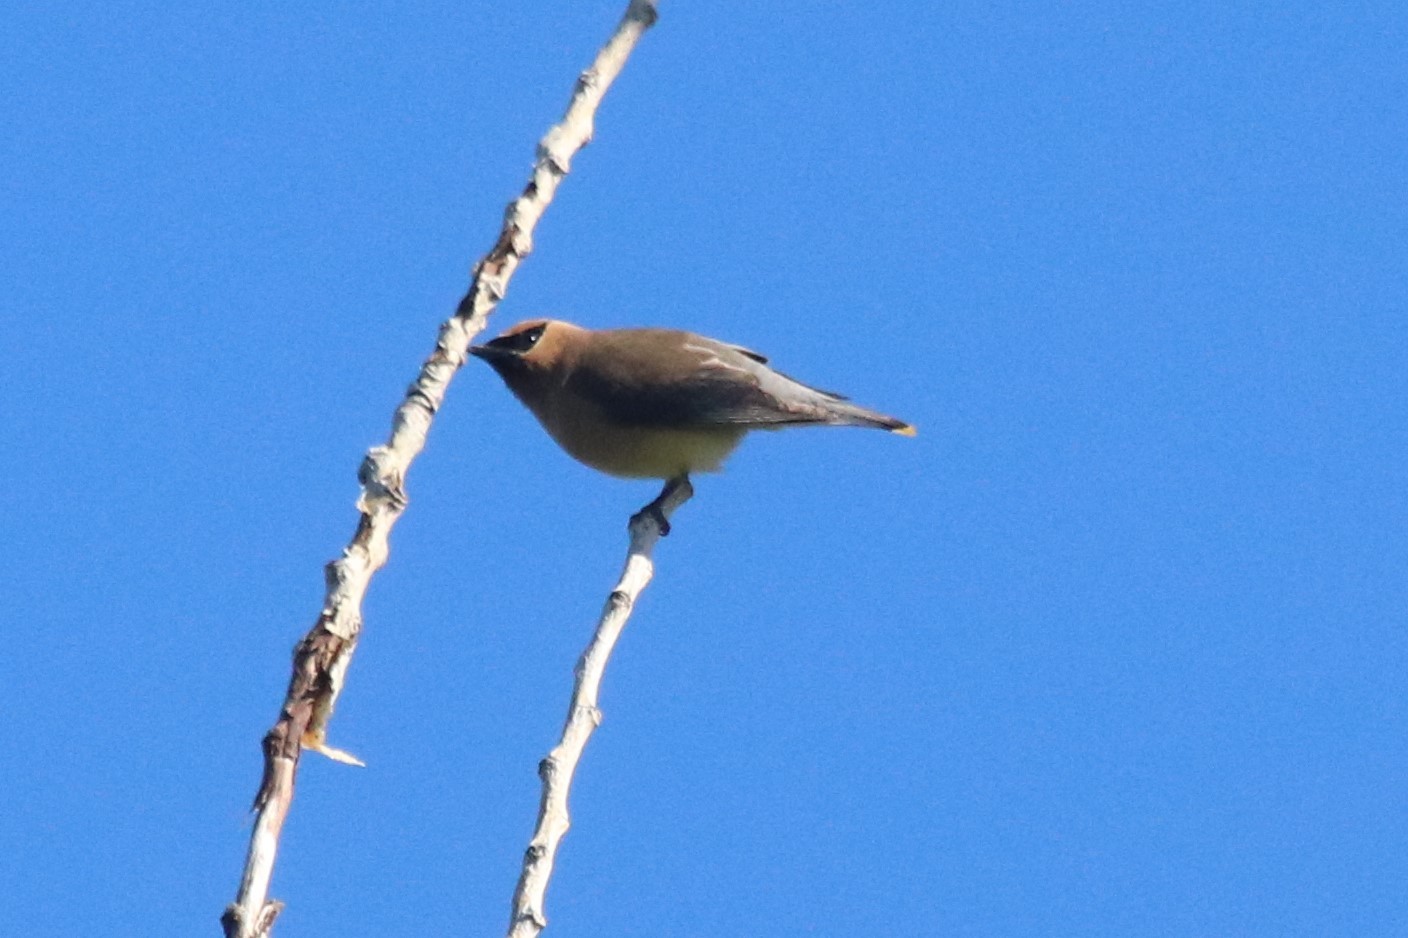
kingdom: Animalia
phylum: Chordata
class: Aves
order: Passeriformes
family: Bombycillidae
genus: Bombycilla
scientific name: Bombycilla cedrorum
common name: Cedar waxwing
